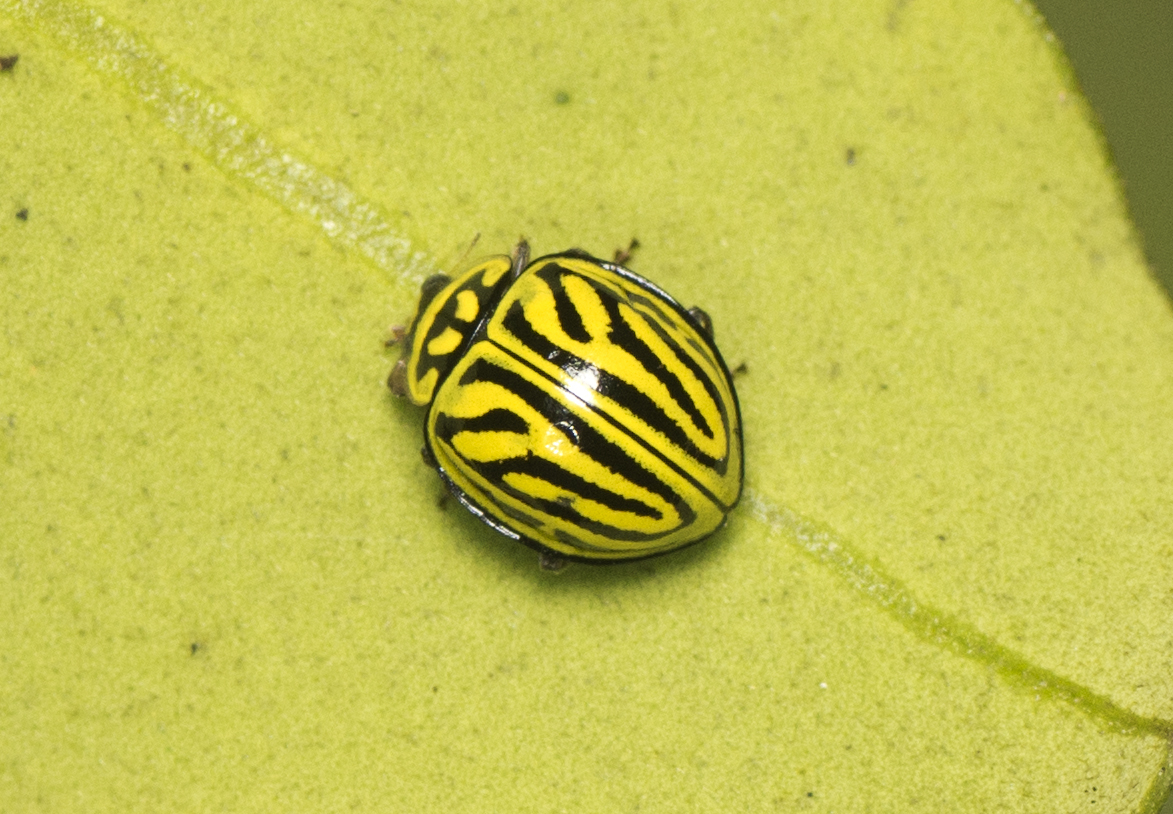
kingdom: Animalia
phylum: Arthropoda
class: Insecta
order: Coleoptera
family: Coccinellidae
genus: Archegleis
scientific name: Archegleis
